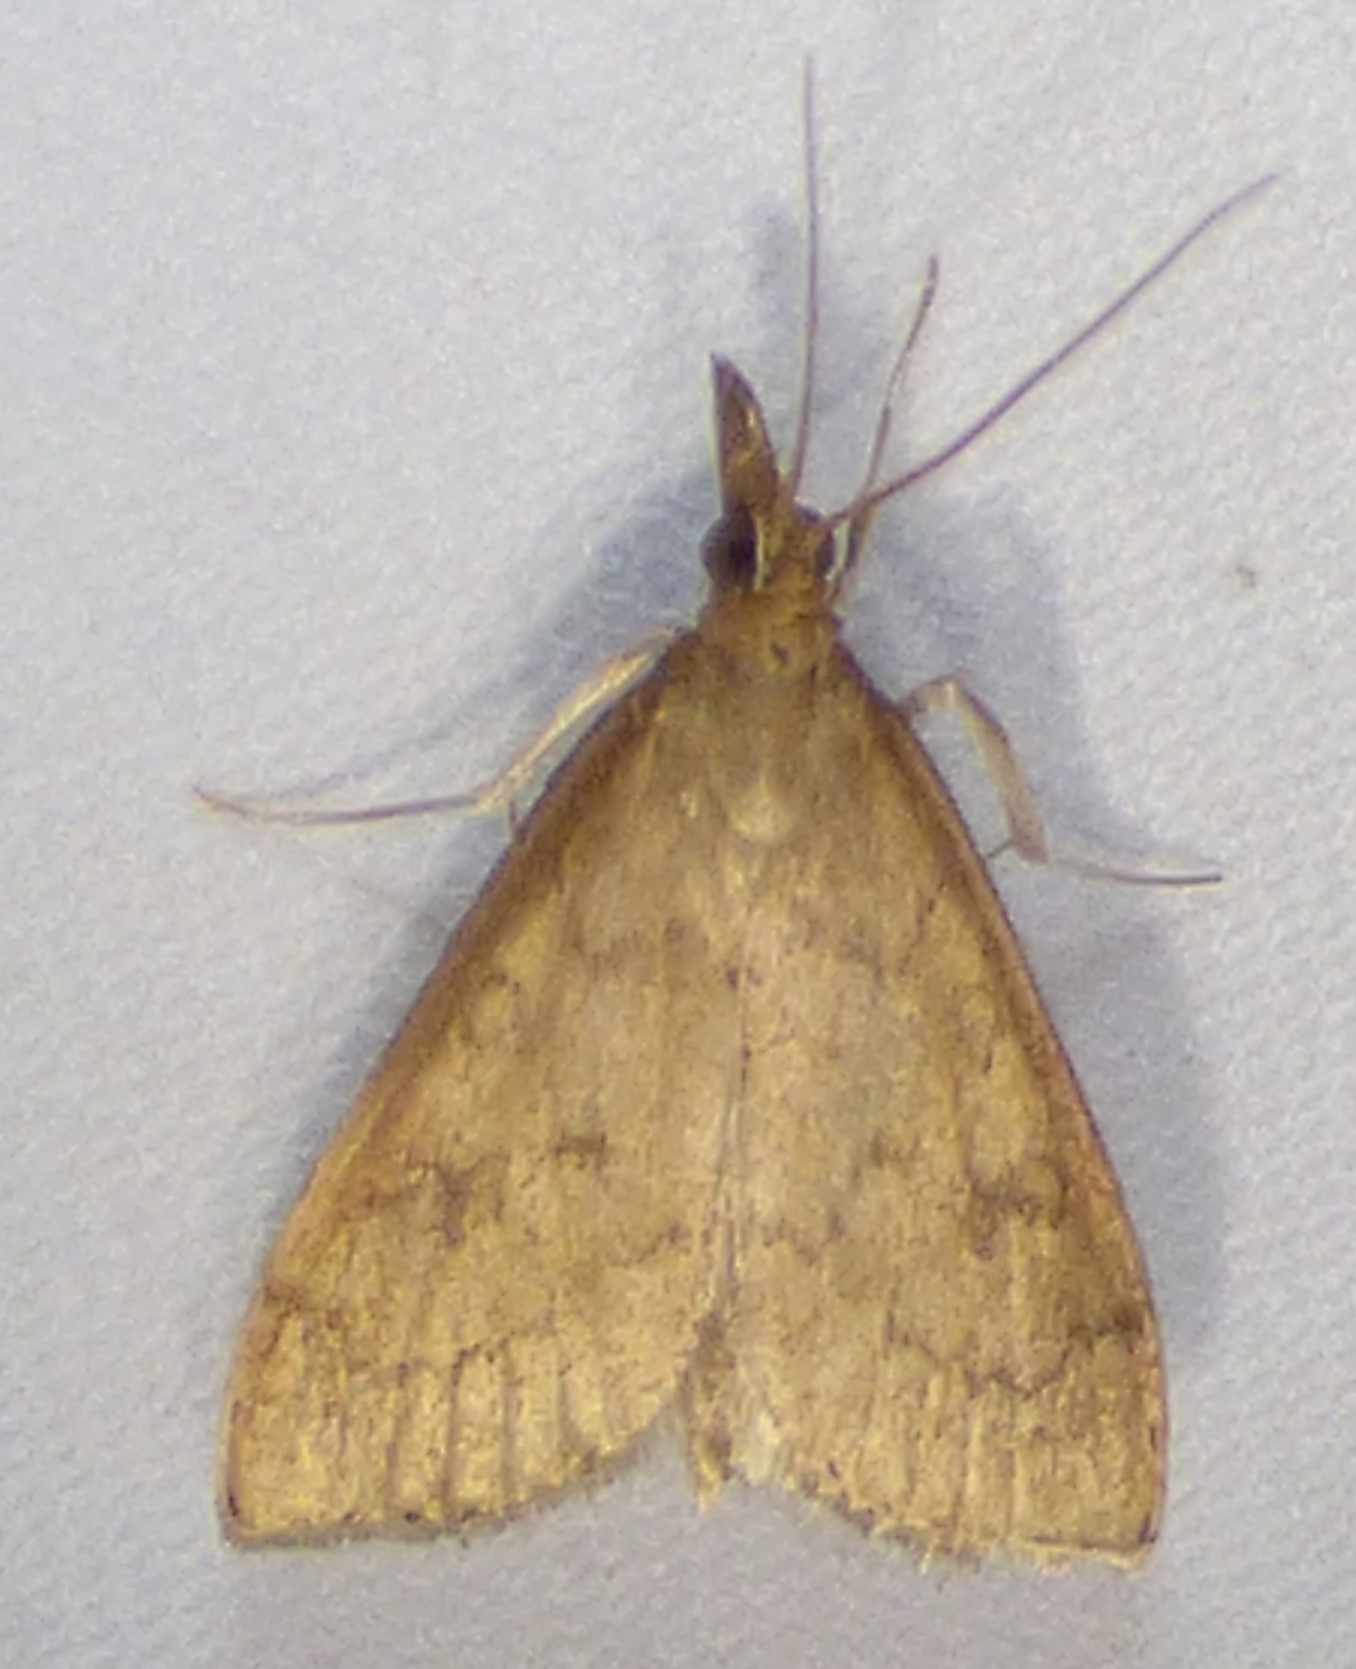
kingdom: Animalia
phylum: Arthropoda
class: Insecta
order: Lepidoptera
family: Crambidae
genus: Udea
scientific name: Udea rubigalis
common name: Celery leaftier moth
